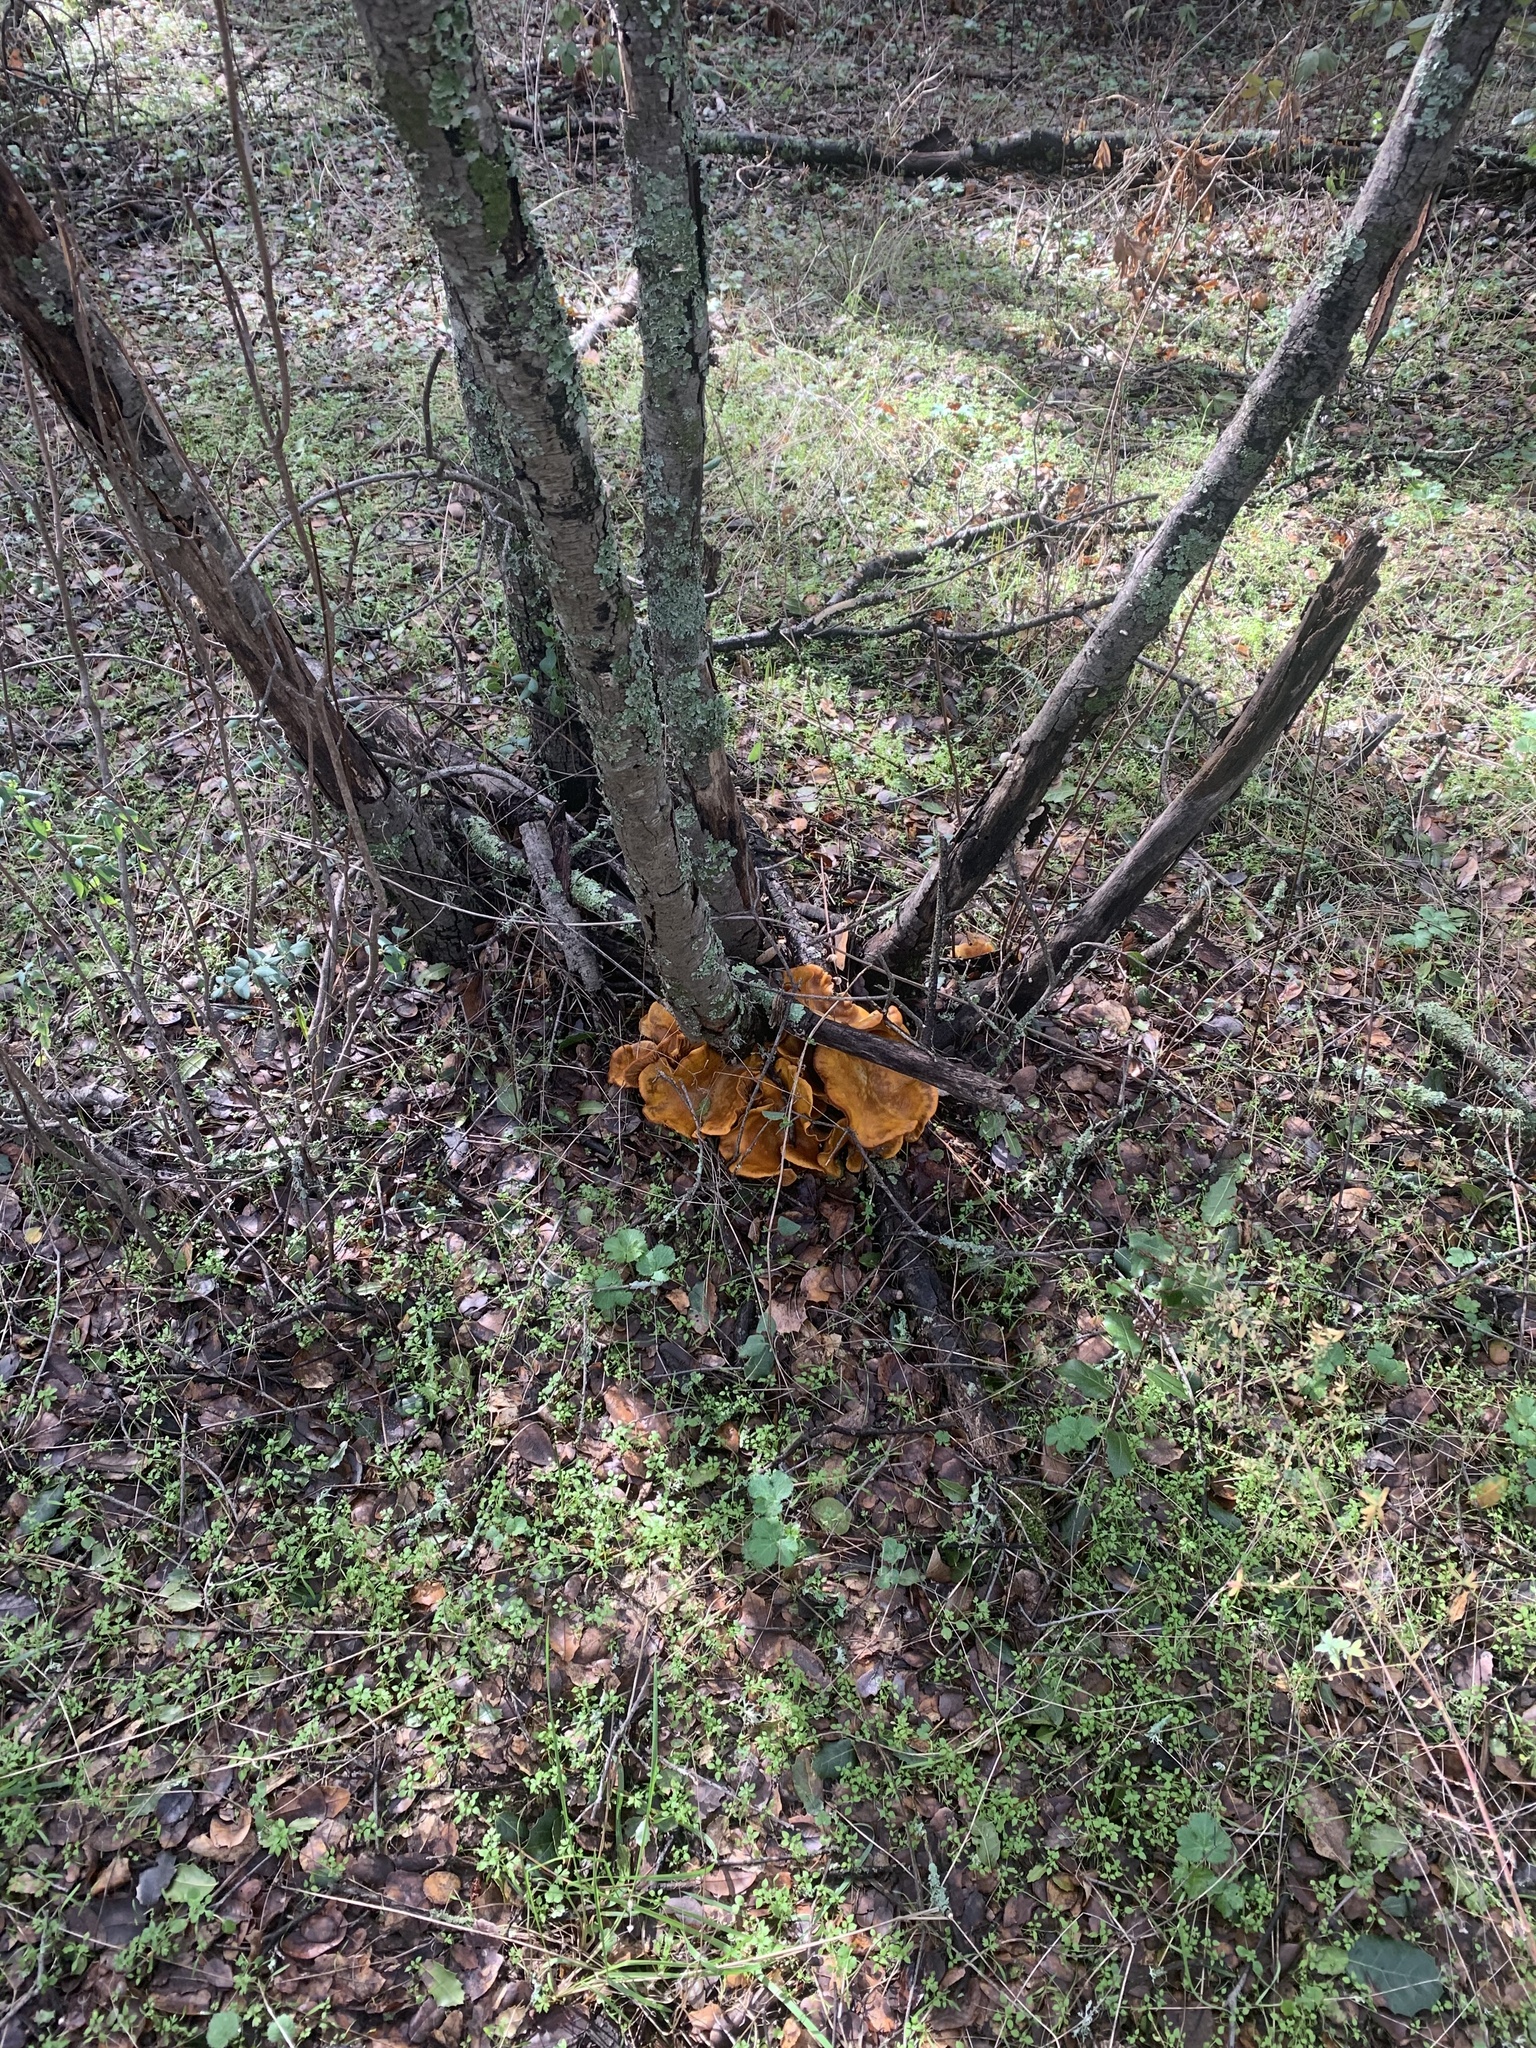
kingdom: Fungi
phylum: Basidiomycota
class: Agaricomycetes
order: Agaricales
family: Omphalotaceae
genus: Omphalotus
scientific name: Omphalotus olivascens
